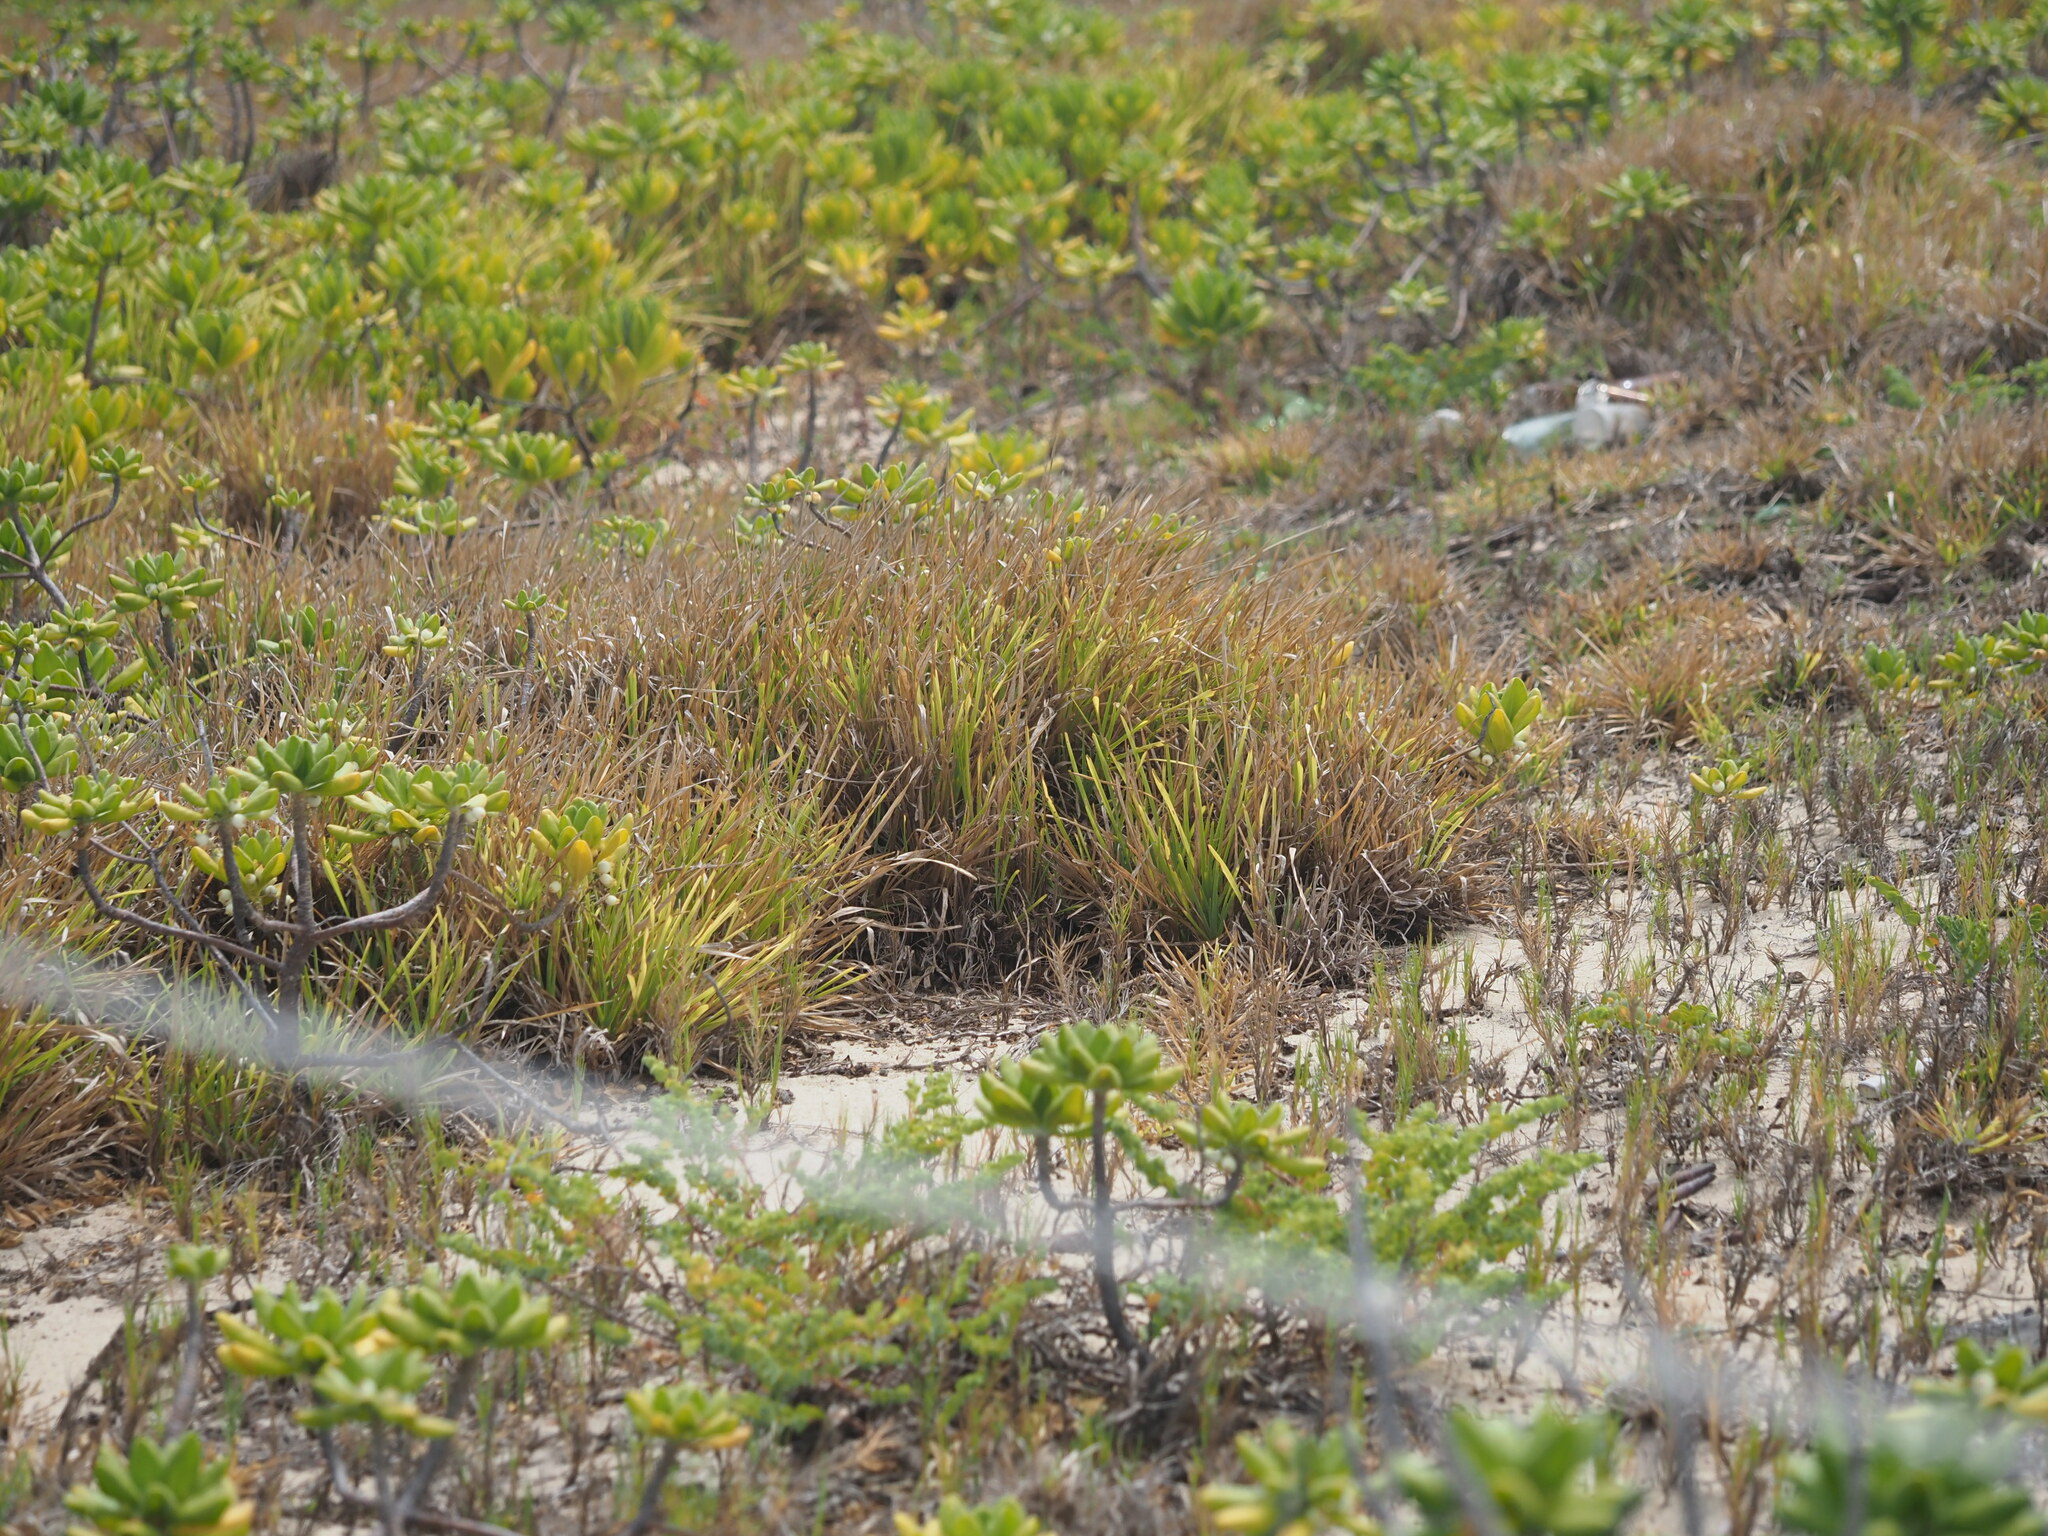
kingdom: Plantae
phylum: Tracheophyta
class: Liliopsida
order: Poales
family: Poaceae
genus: Stenotaphrum
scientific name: Stenotaphrum secundatum
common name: St. augustine grass
